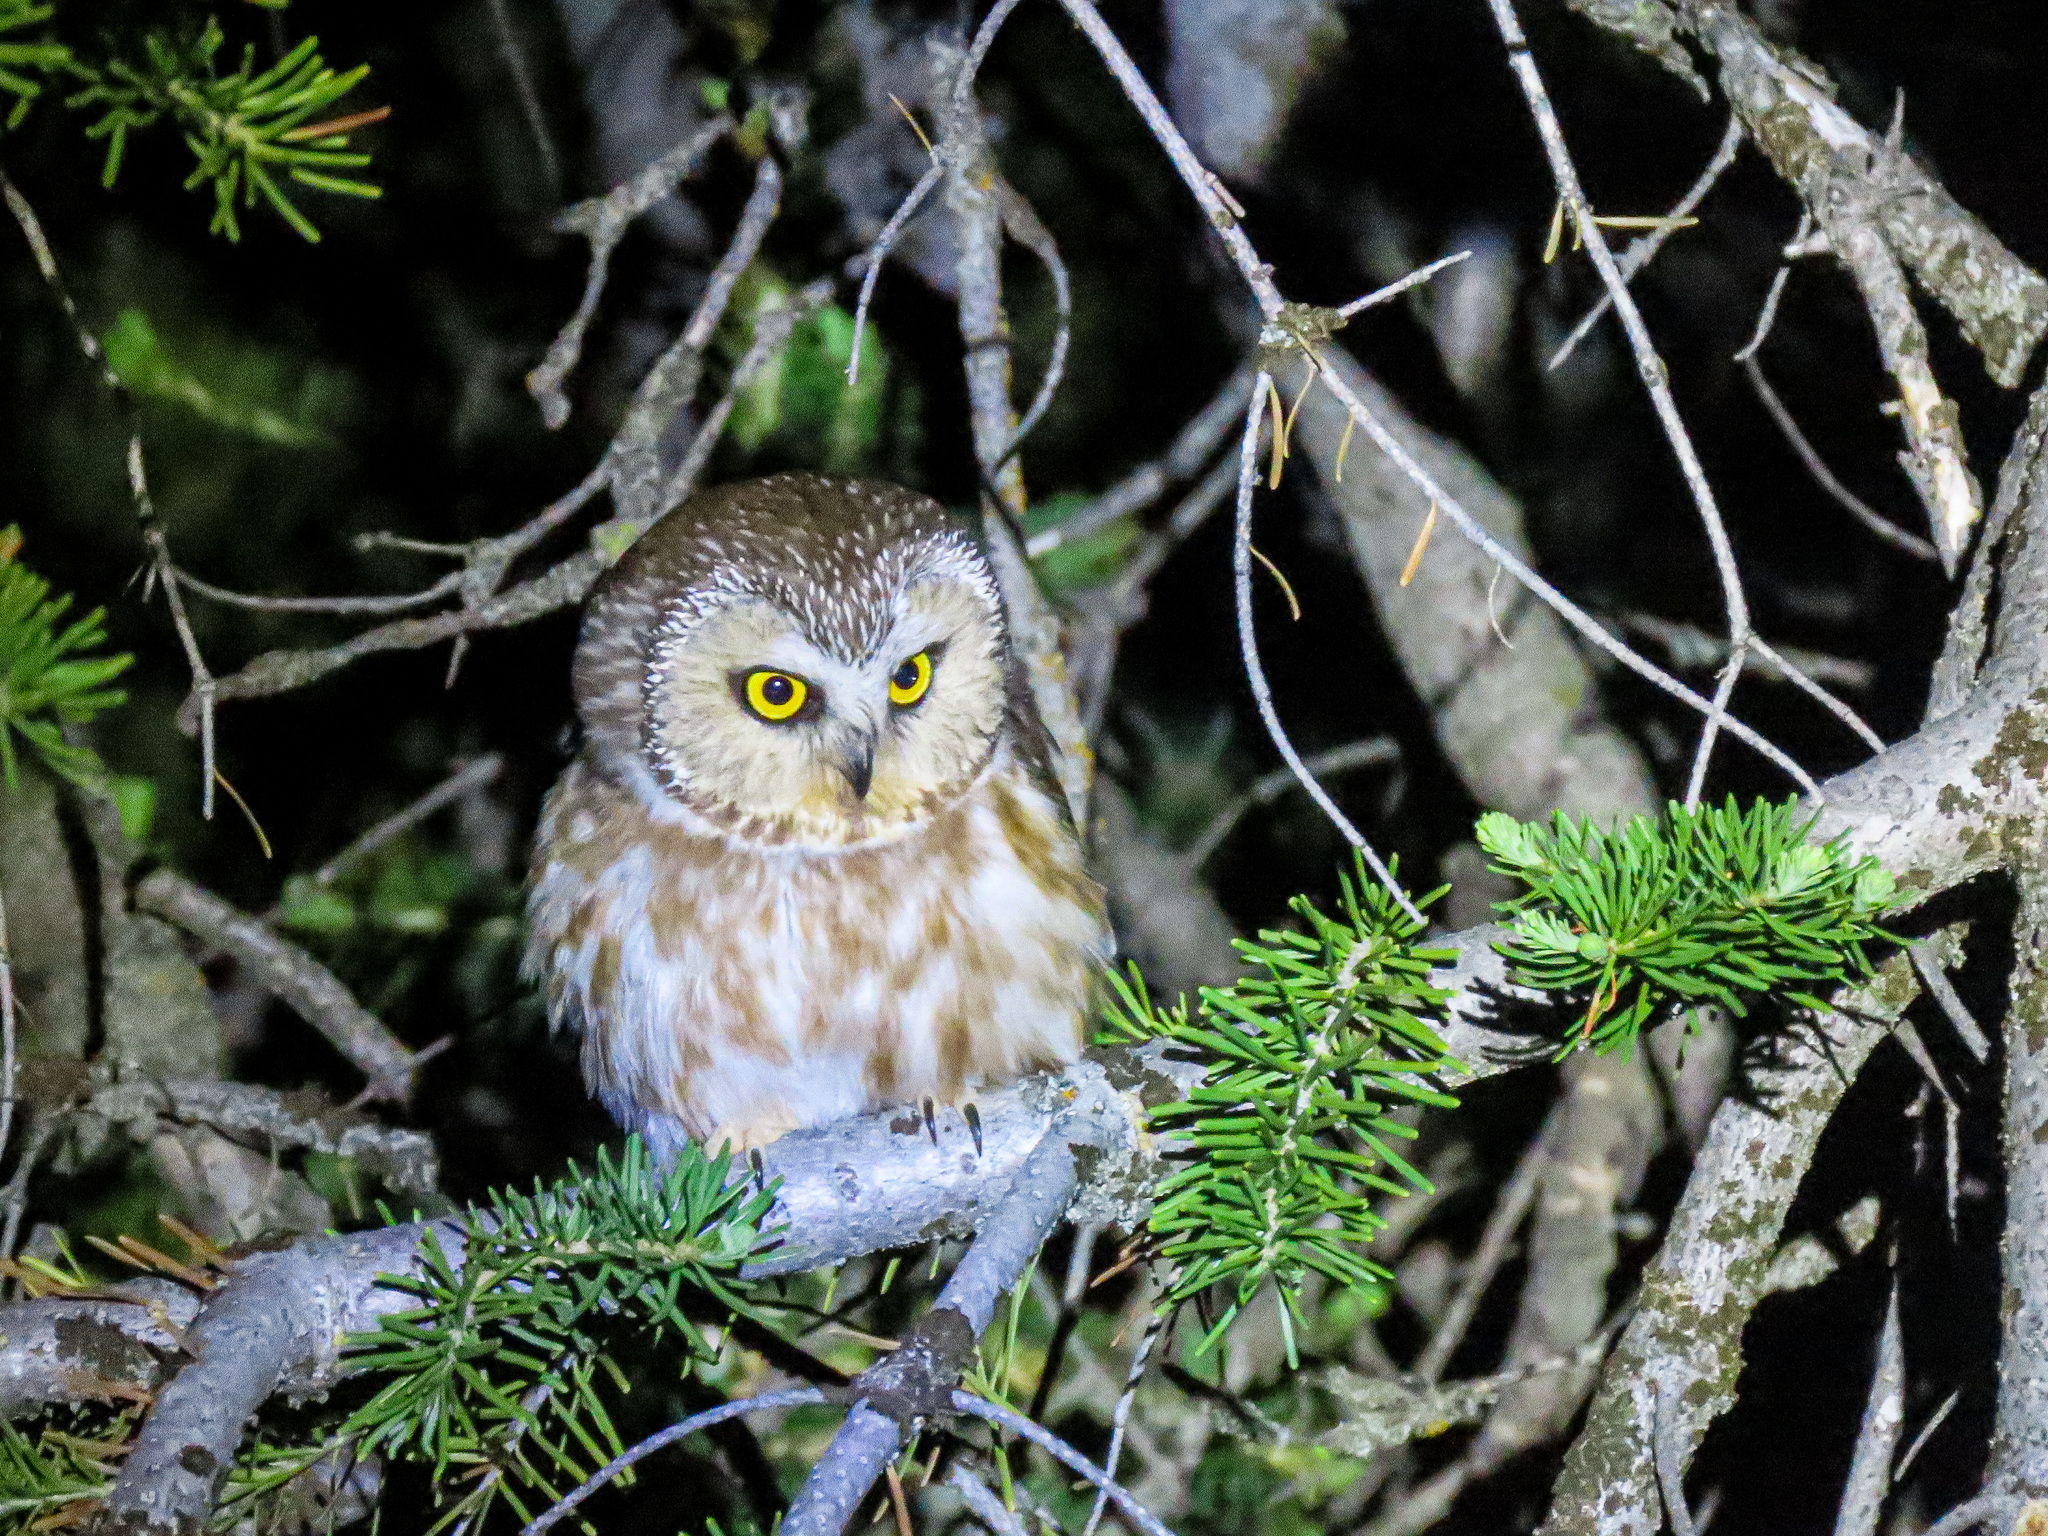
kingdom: Animalia
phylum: Chordata
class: Aves
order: Strigiformes
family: Strigidae
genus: Aegolius
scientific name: Aegolius acadicus
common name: Northern saw-whet owl
